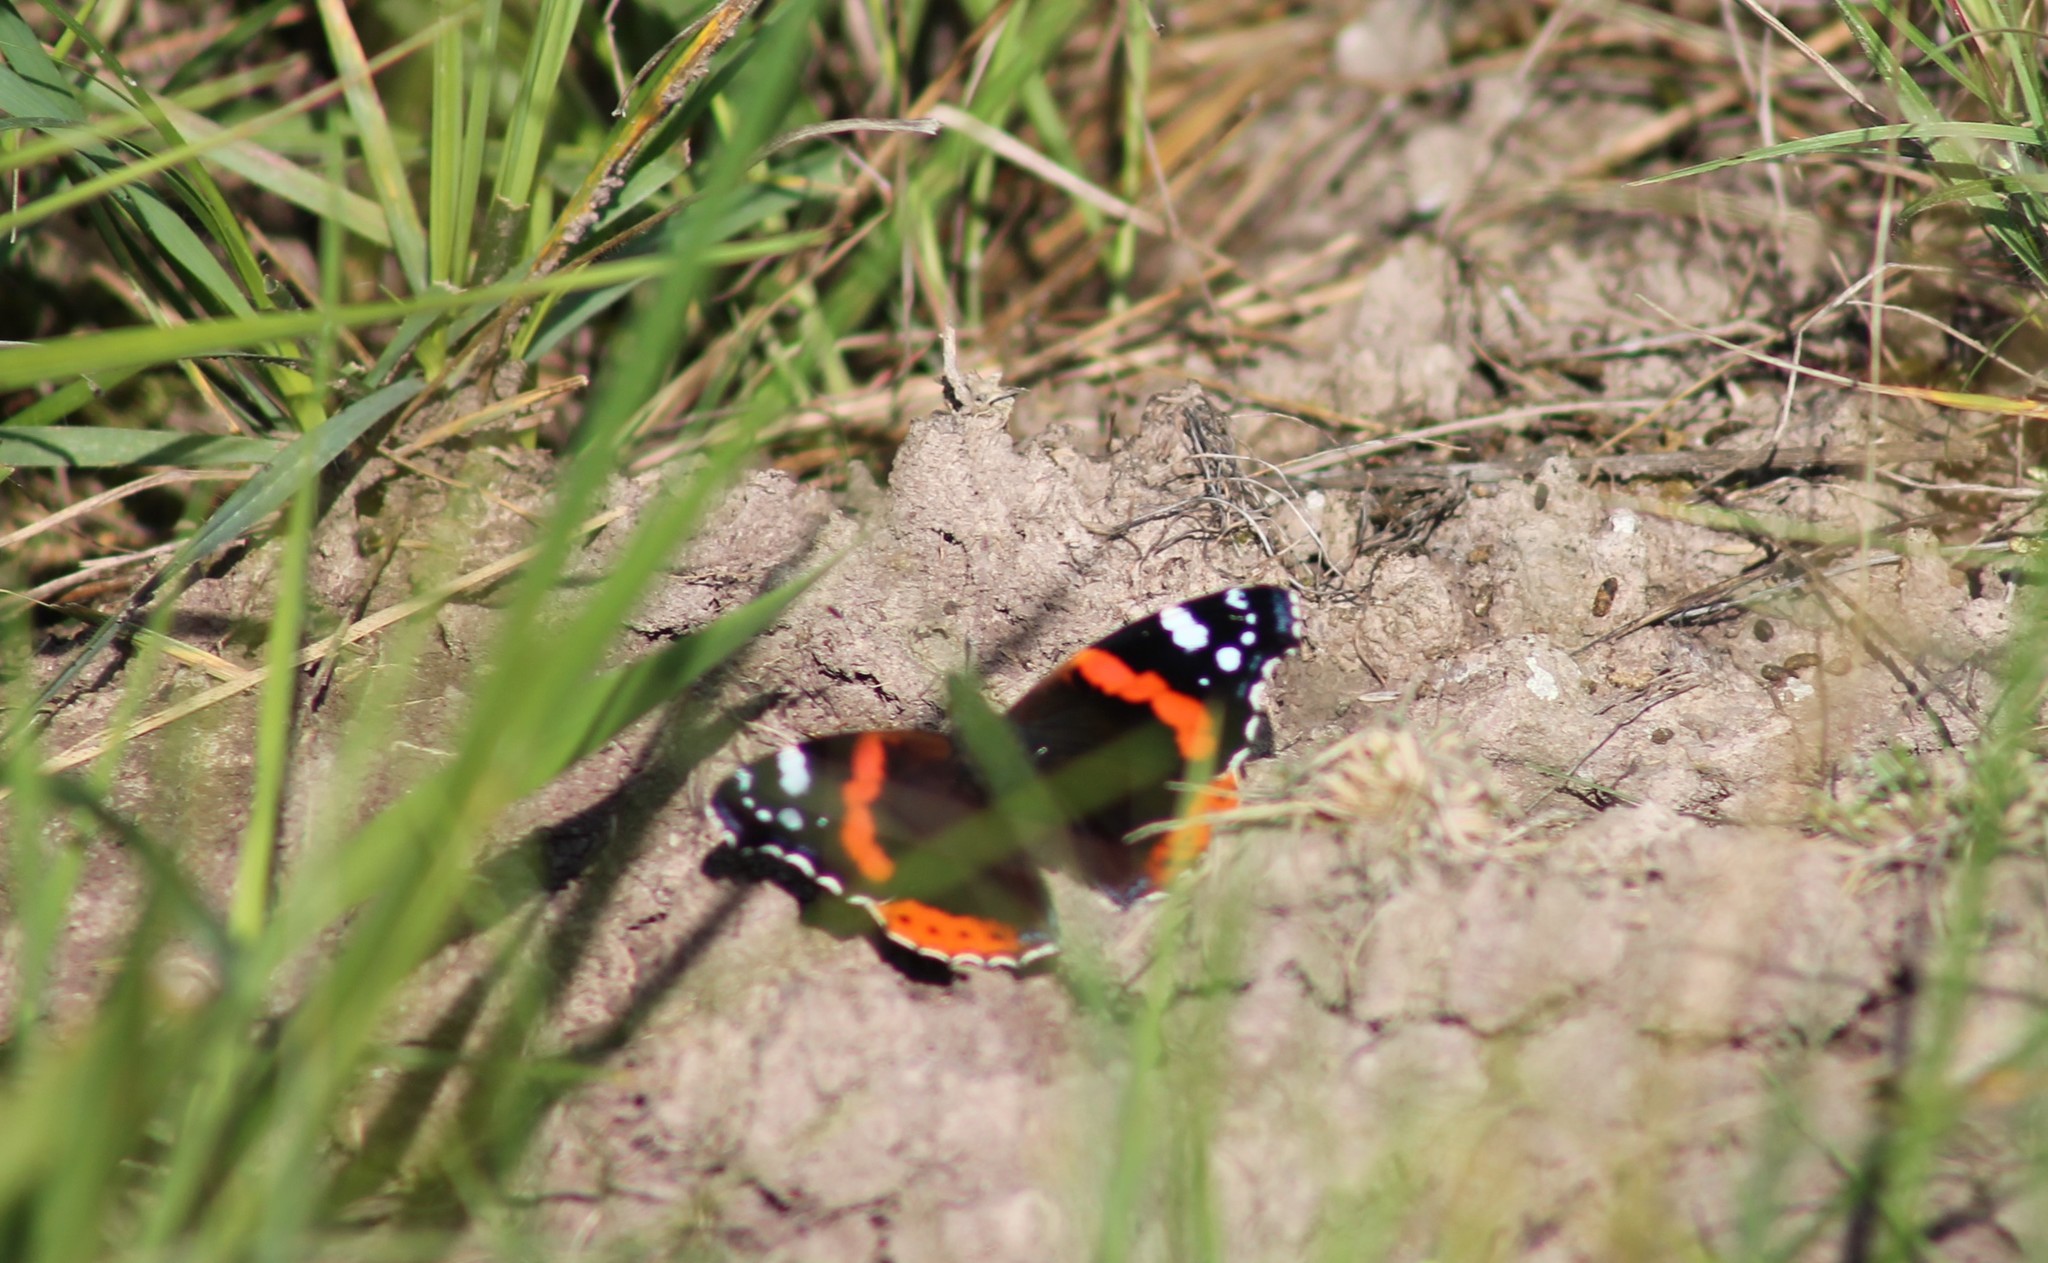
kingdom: Animalia
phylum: Arthropoda
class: Insecta
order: Lepidoptera
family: Nymphalidae
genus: Vanessa
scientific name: Vanessa atalanta
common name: Red admiral
